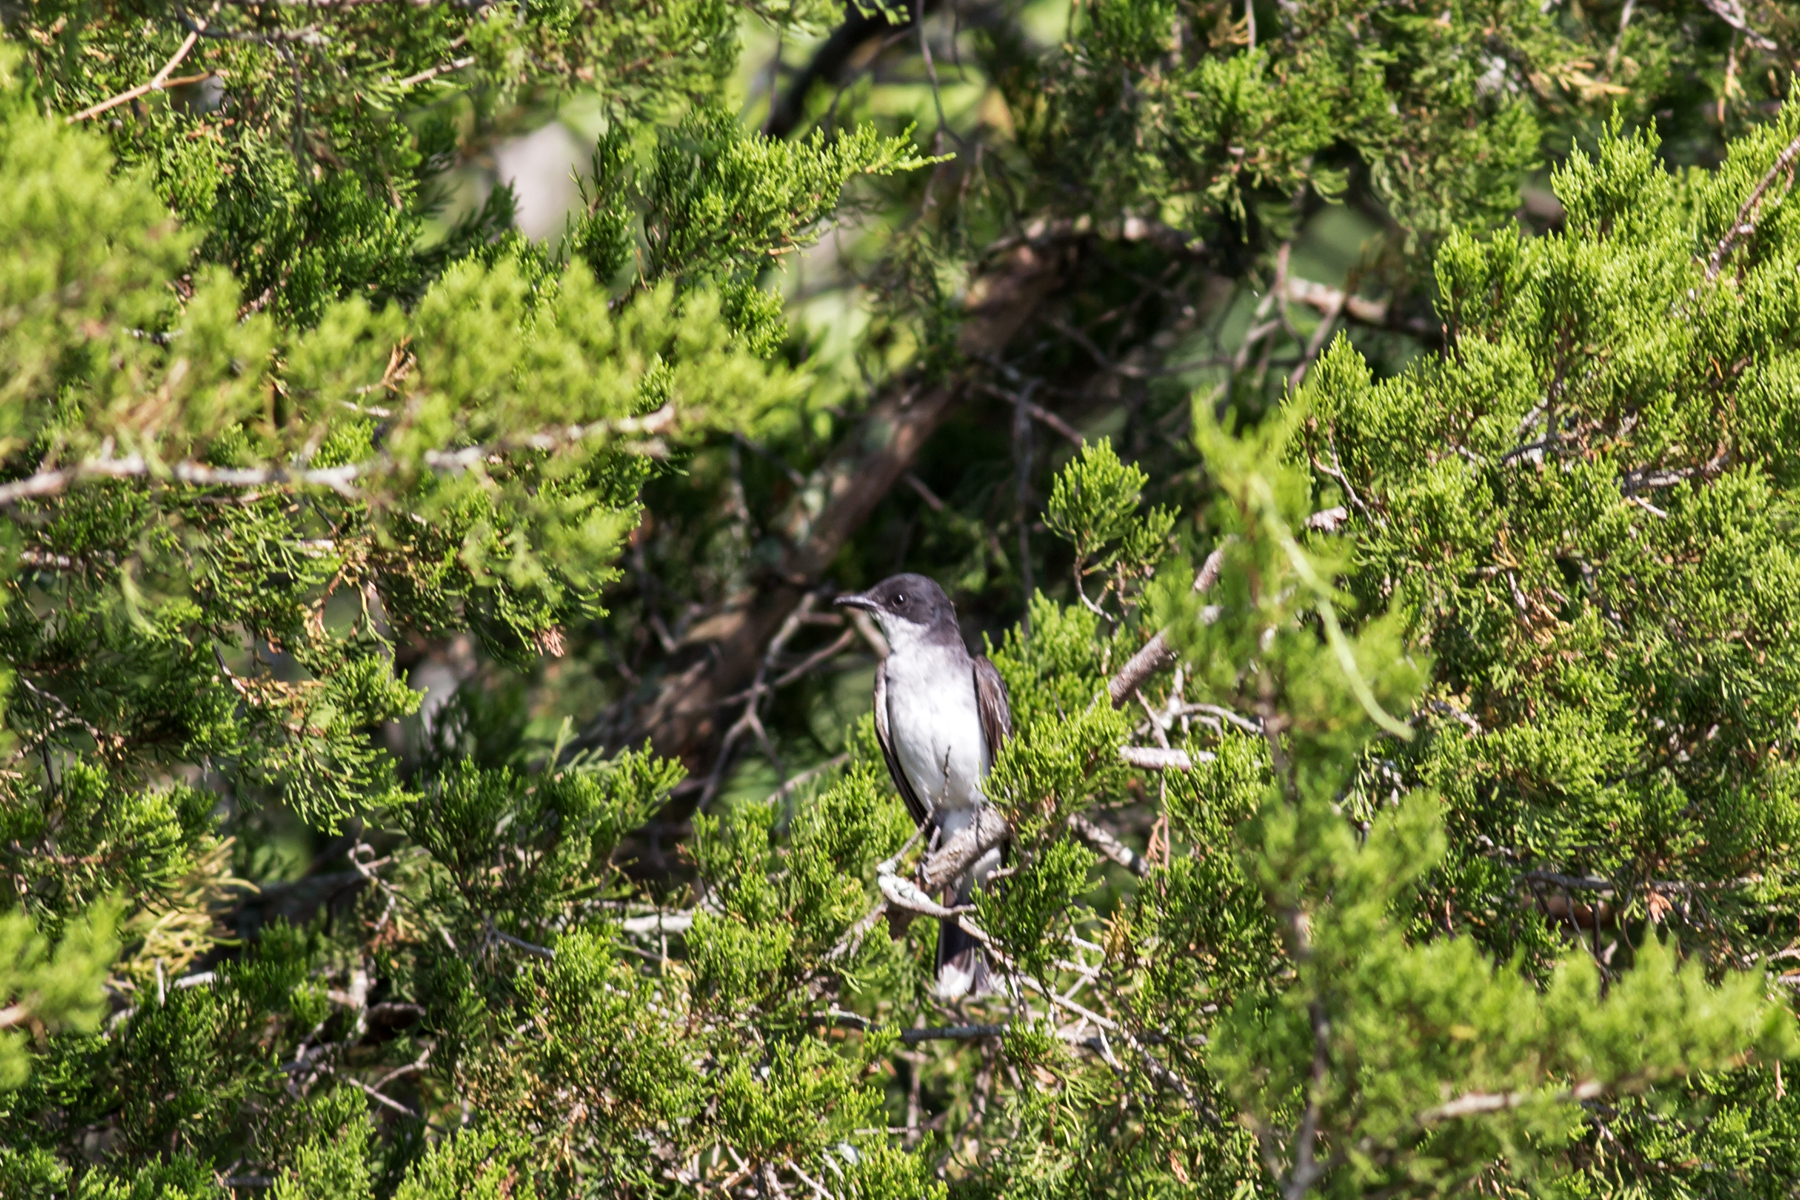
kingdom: Animalia
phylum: Chordata
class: Aves
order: Passeriformes
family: Tyrannidae
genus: Tyrannus
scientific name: Tyrannus tyrannus
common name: Eastern kingbird
